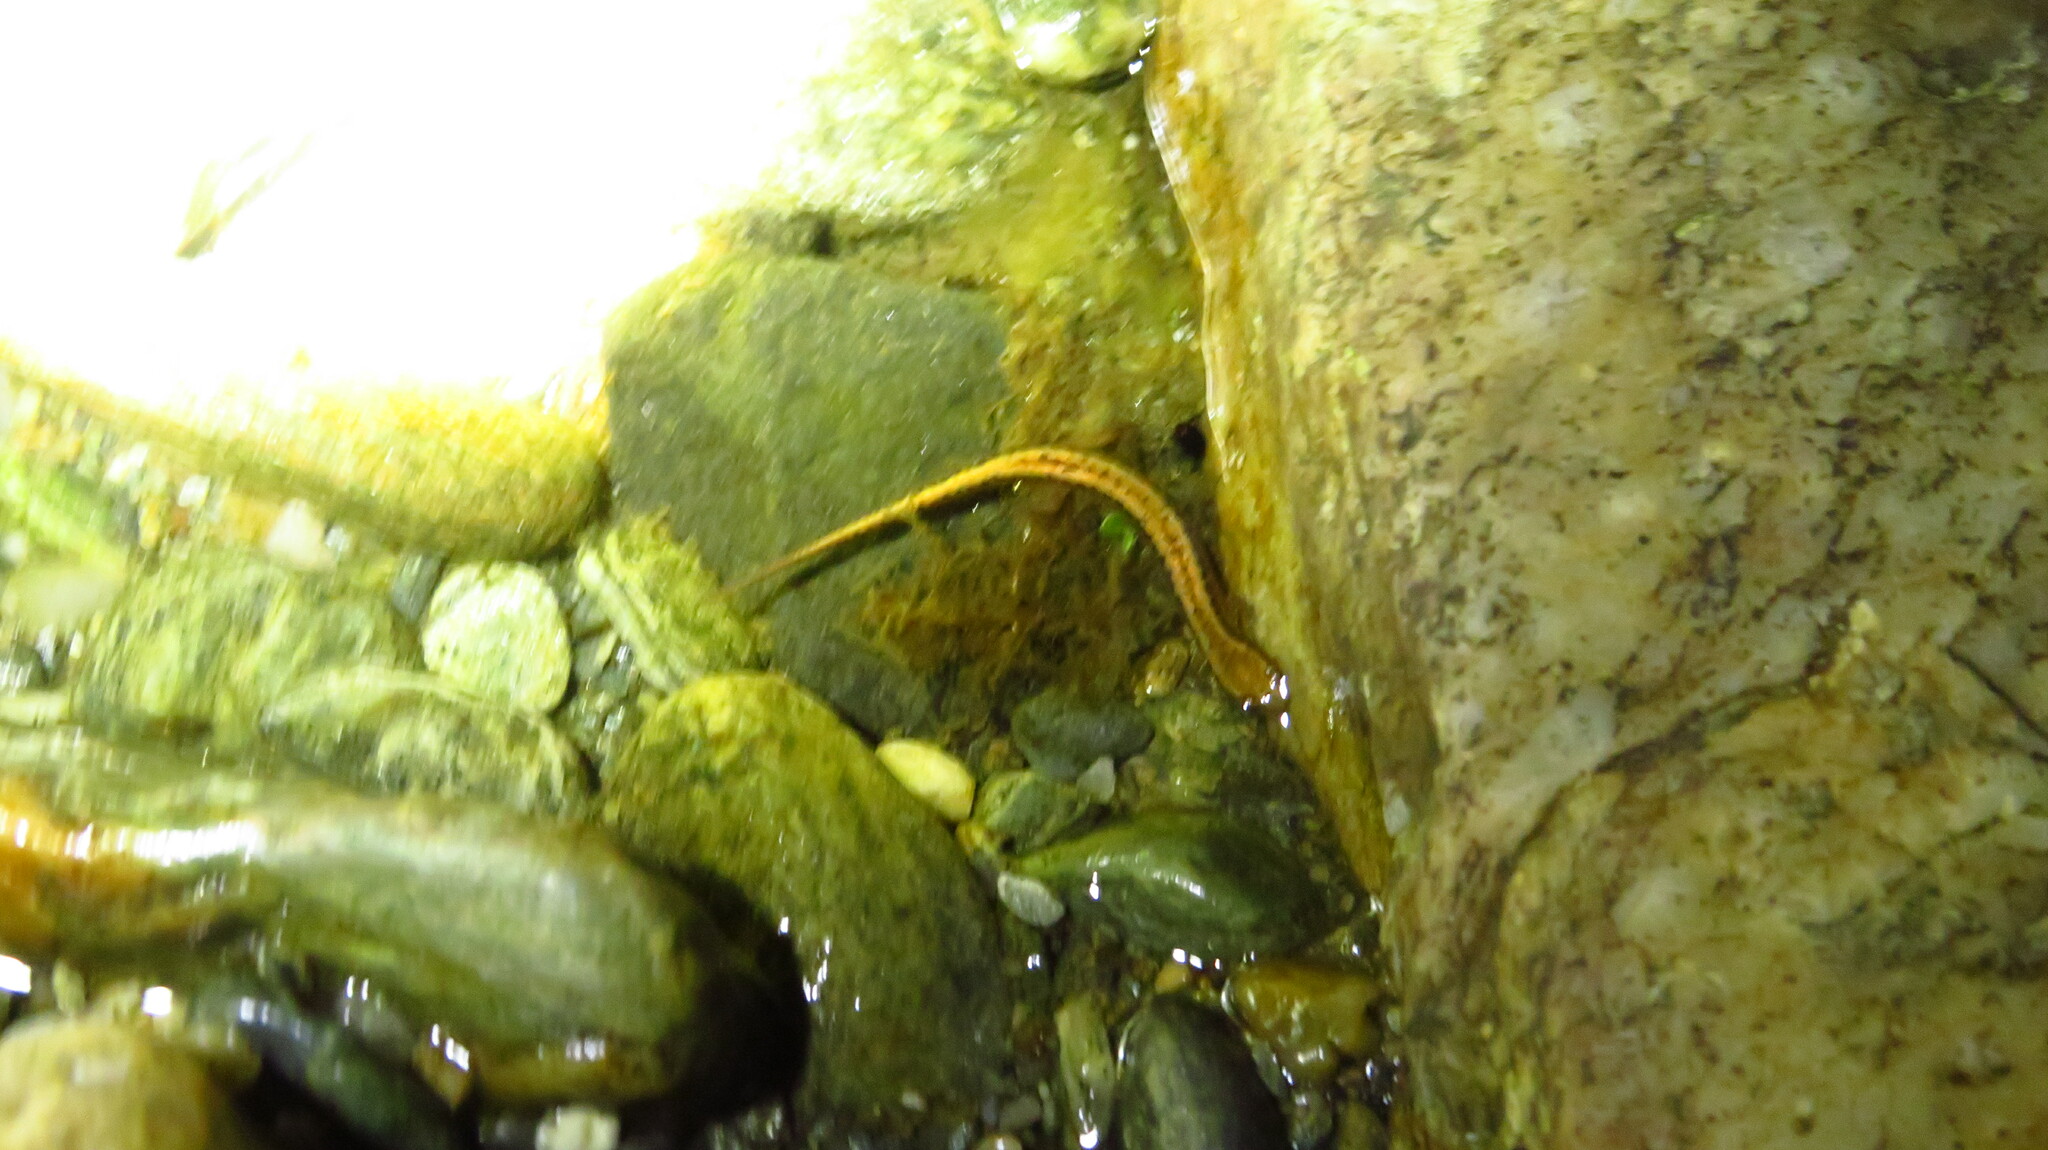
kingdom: Animalia
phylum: Chordata
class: Amphibia
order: Caudata
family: Plethodontidae
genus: Eurycea
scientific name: Eurycea bislineata
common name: Northern two-lined salamander
